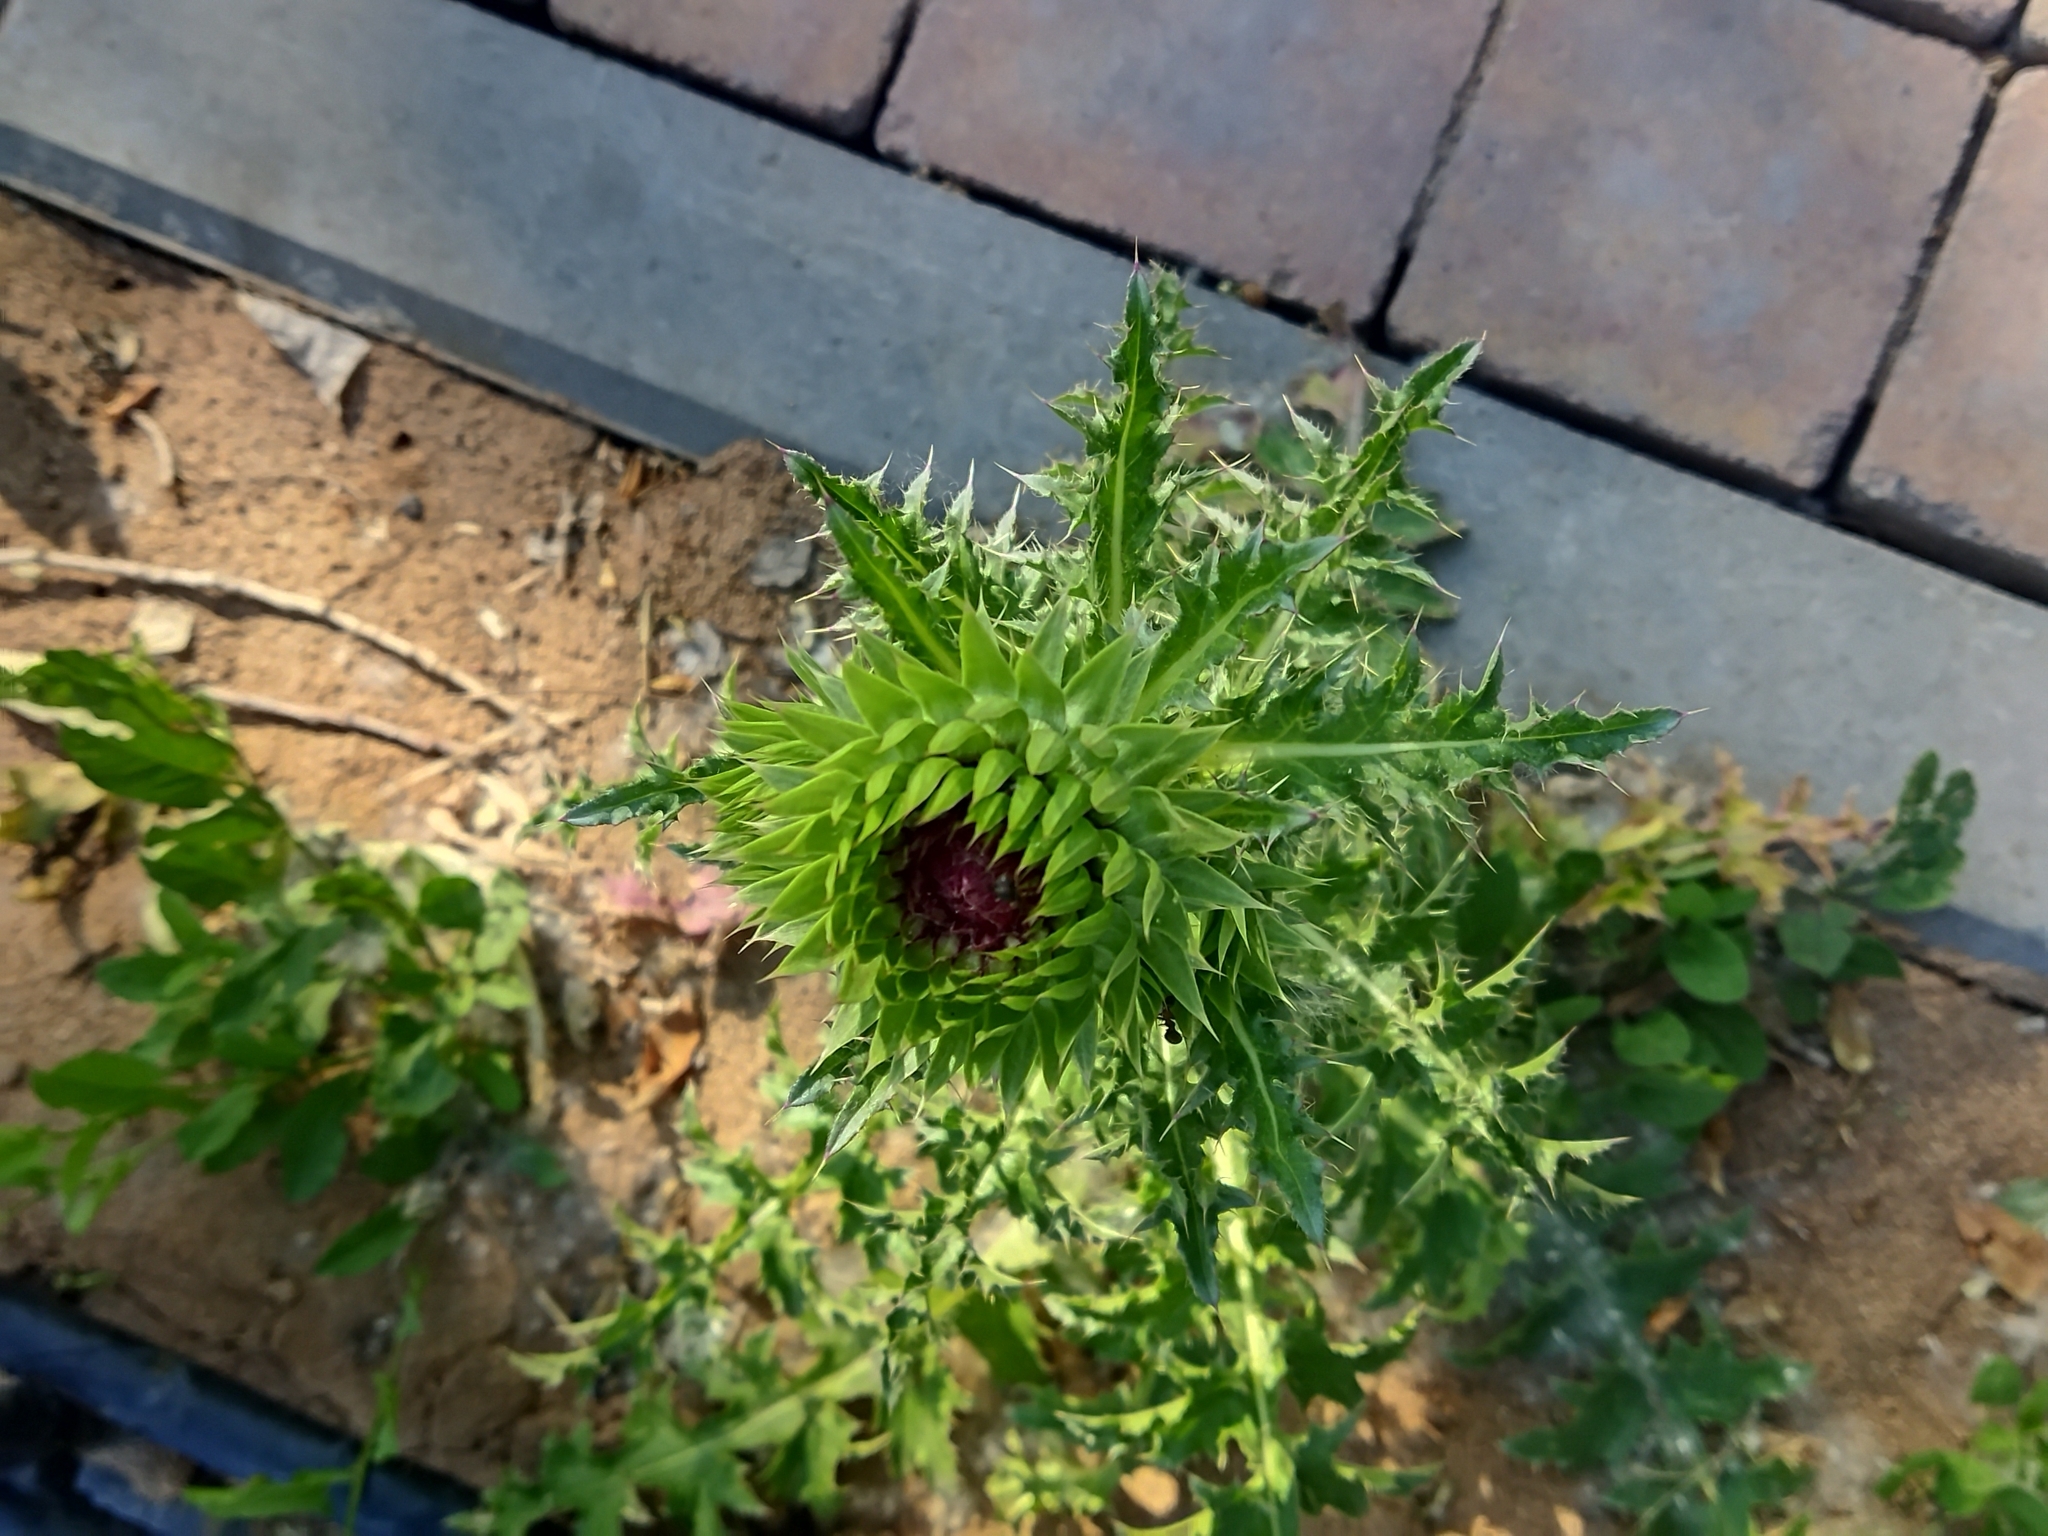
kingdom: Plantae
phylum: Tracheophyta
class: Magnoliopsida
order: Asterales
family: Asteraceae
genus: Carduus
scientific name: Carduus nutans
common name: Musk thistle
